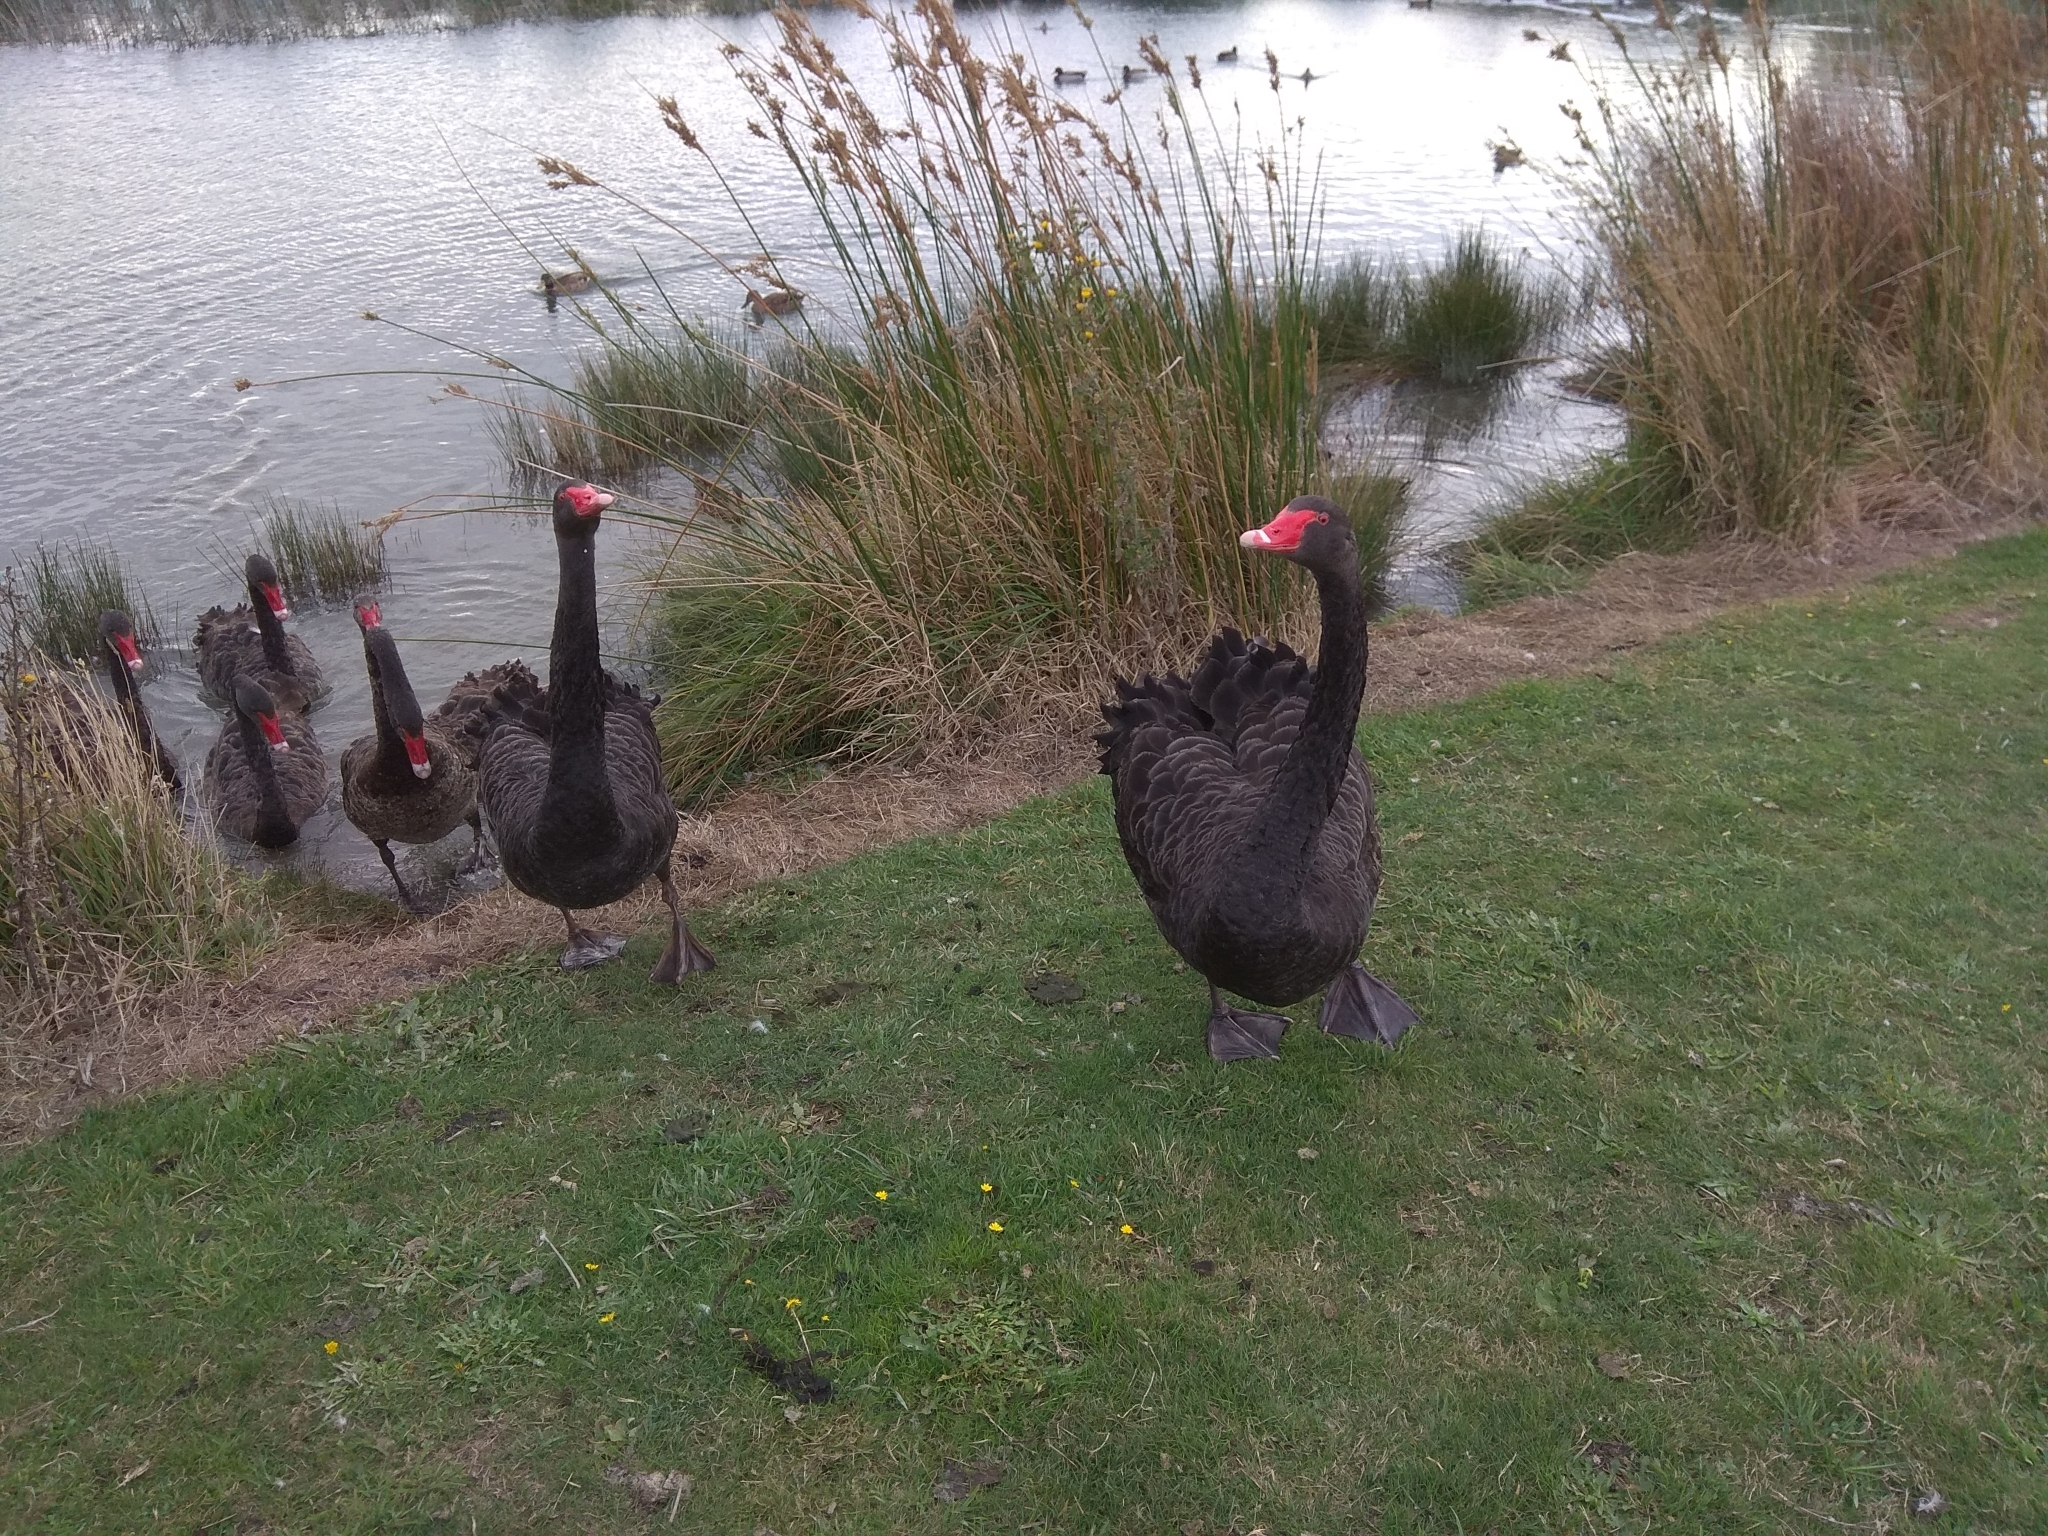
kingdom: Animalia
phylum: Chordata
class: Aves
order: Anseriformes
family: Anatidae
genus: Cygnus
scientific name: Cygnus atratus
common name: Black swan
